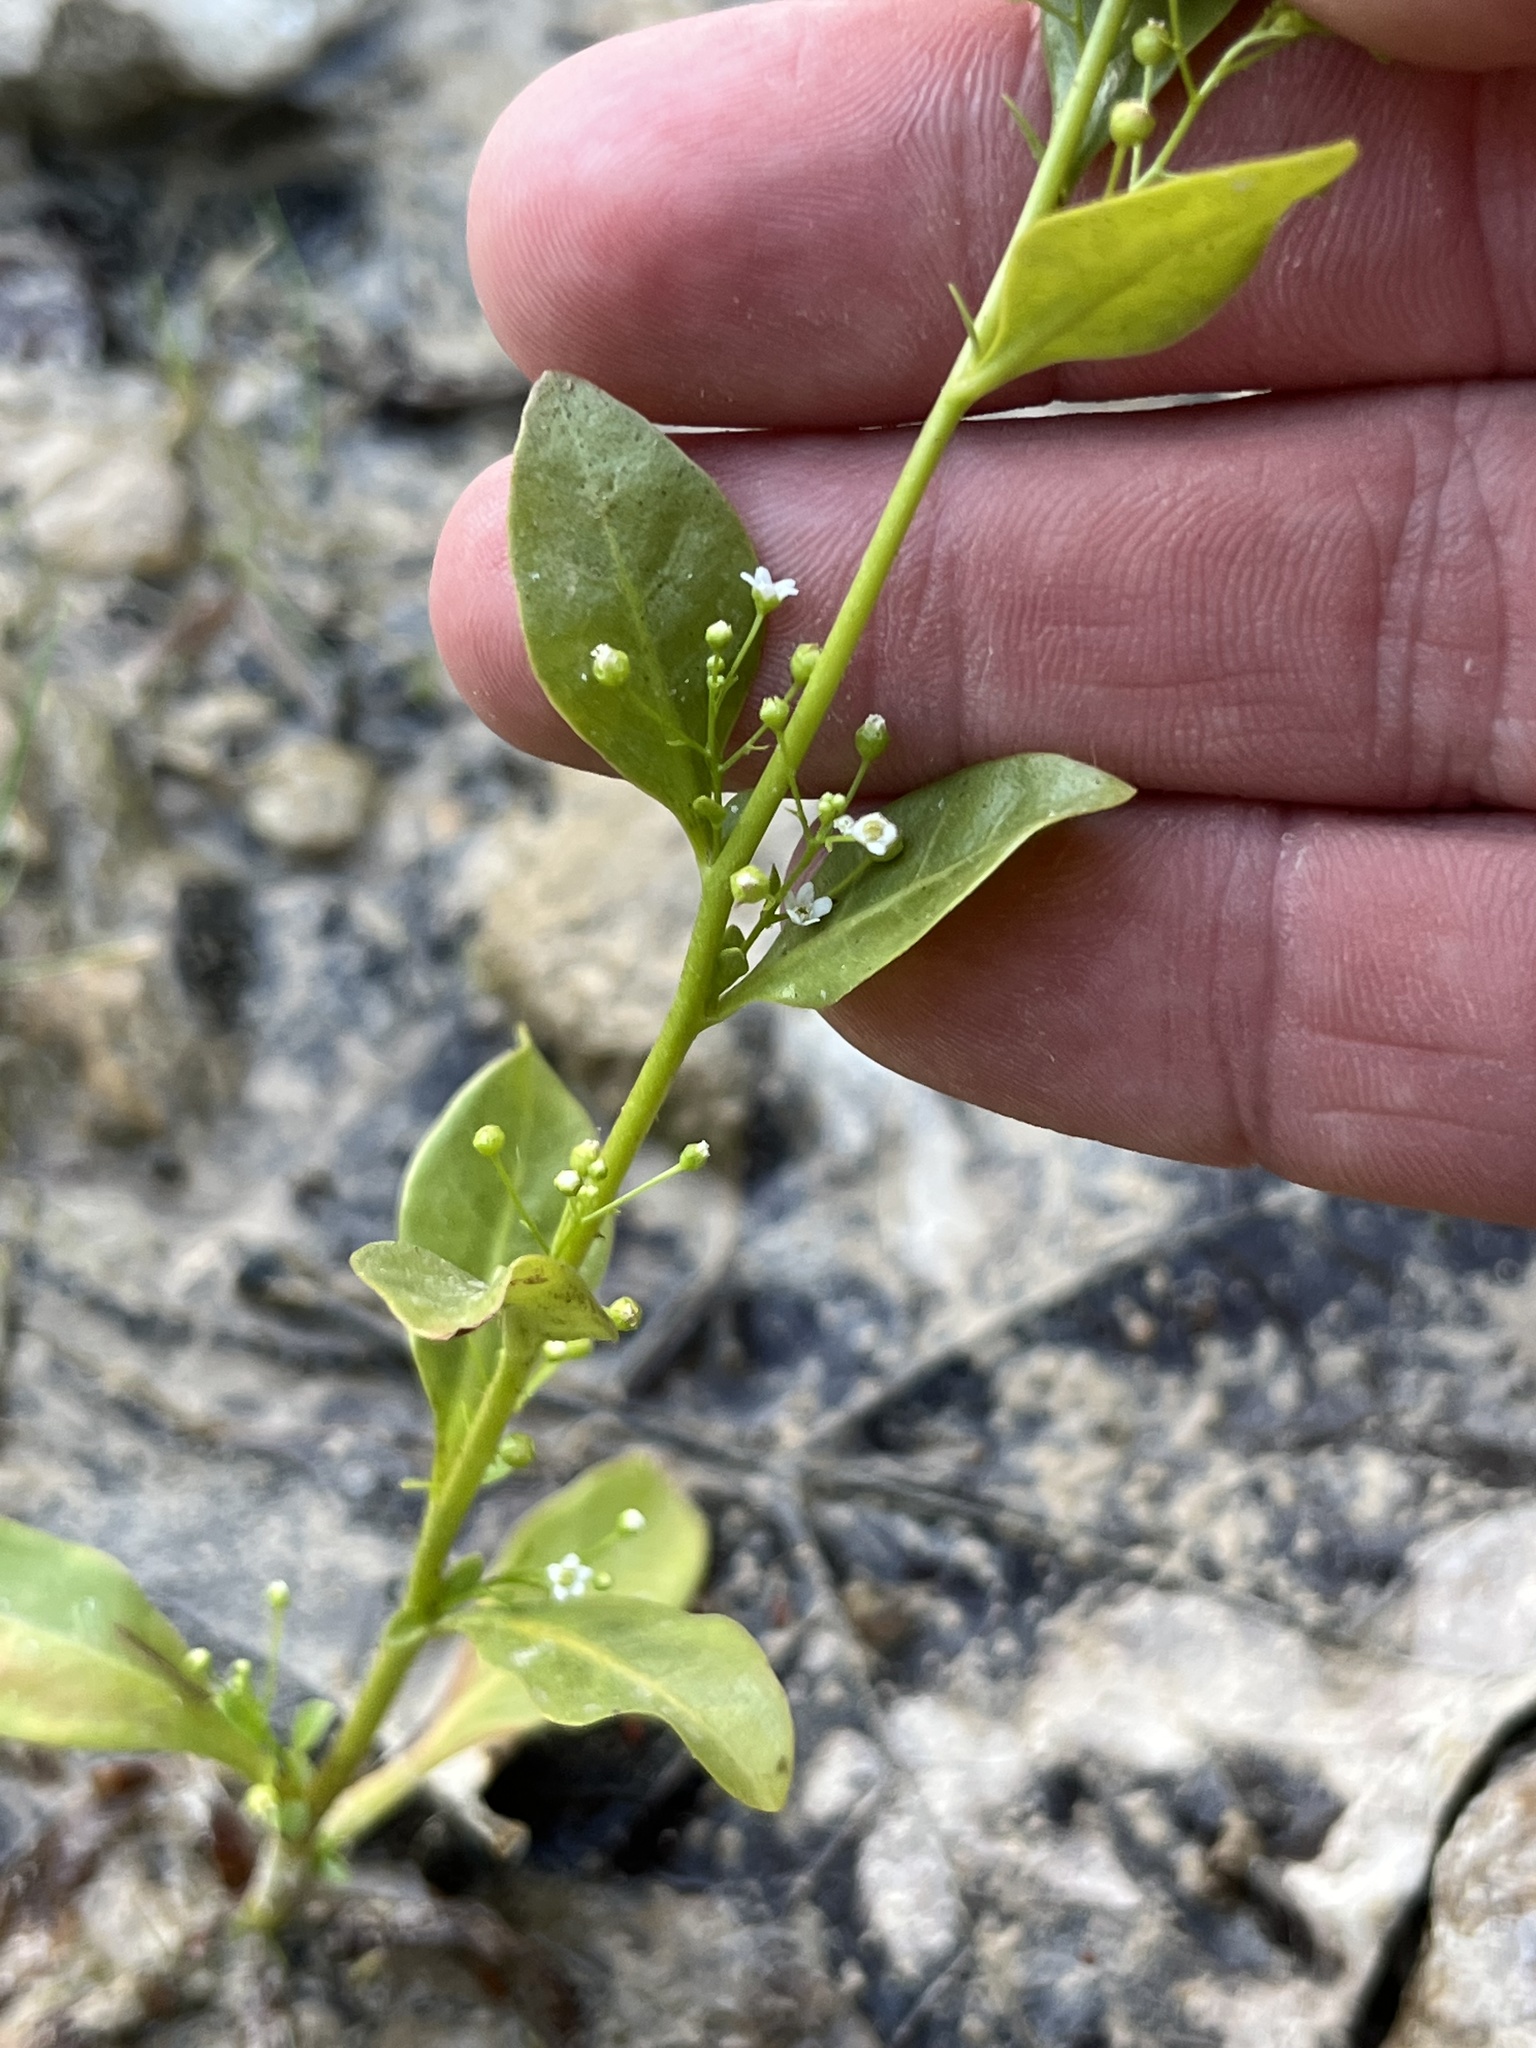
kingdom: Plantae
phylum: Tracheophyta
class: Magnoliopsida
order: Ericales
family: Primulaceae
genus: Samolus
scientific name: Samolus parviflorus
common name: False water pimpernel
